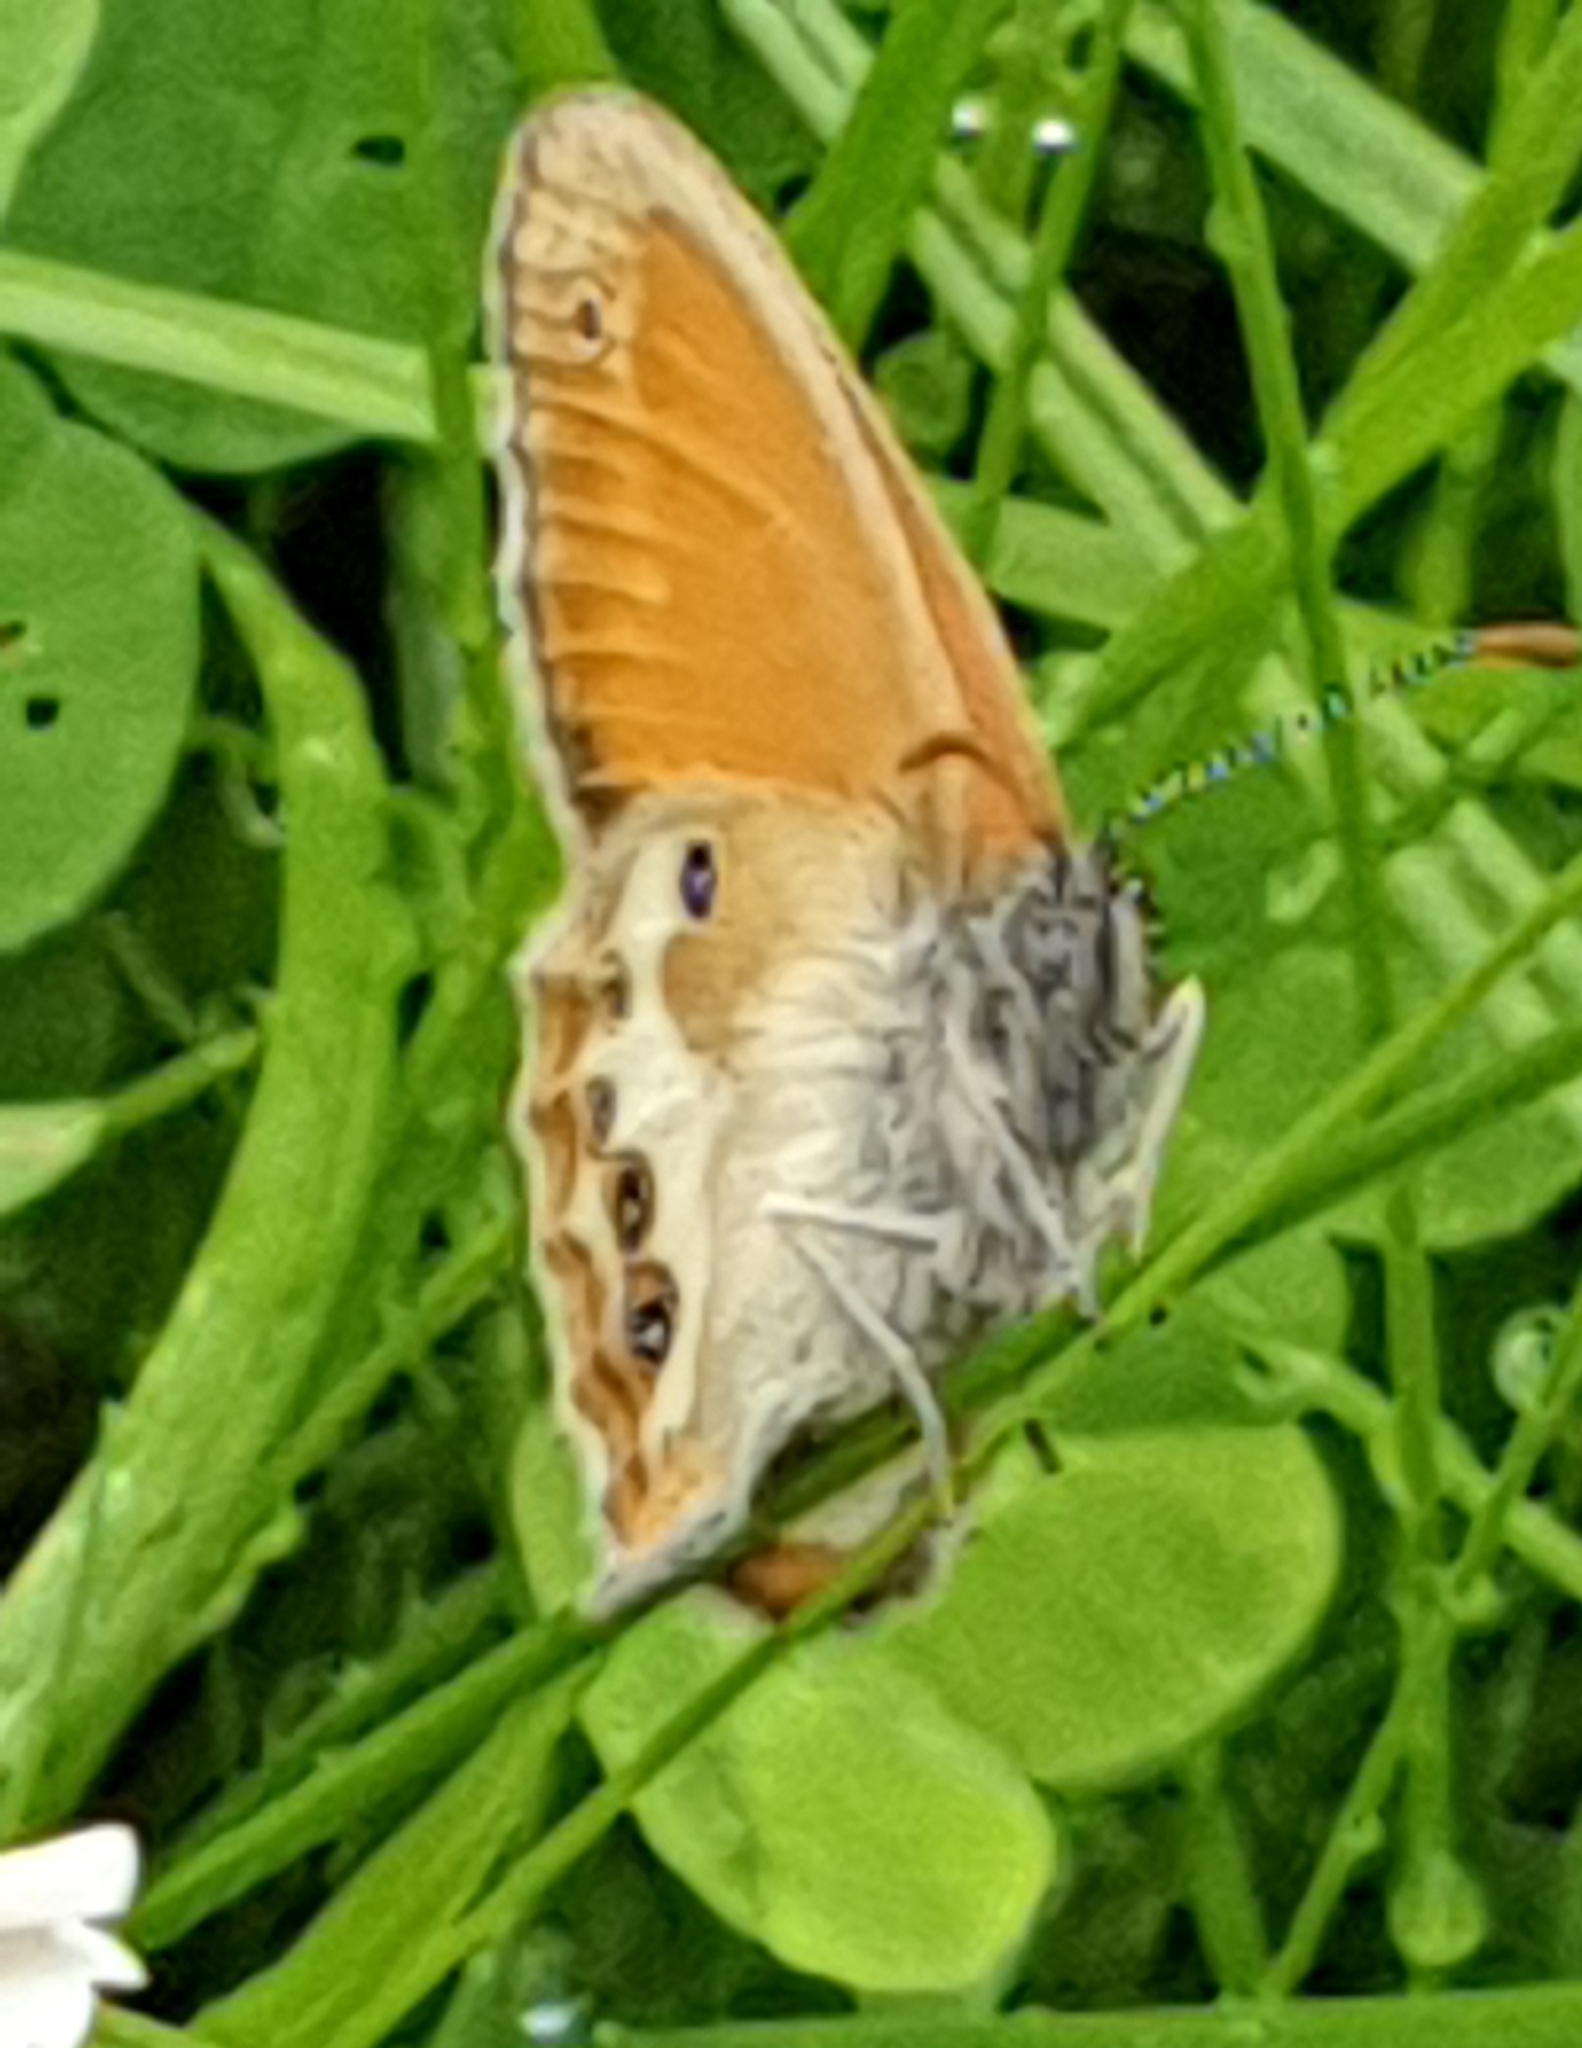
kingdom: Animalia
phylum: Arthropoda
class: Insecta
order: Lepidoptera
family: Nymphalidae
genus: Coenonympha
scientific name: Coenonympha arcania
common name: Pearly heath
